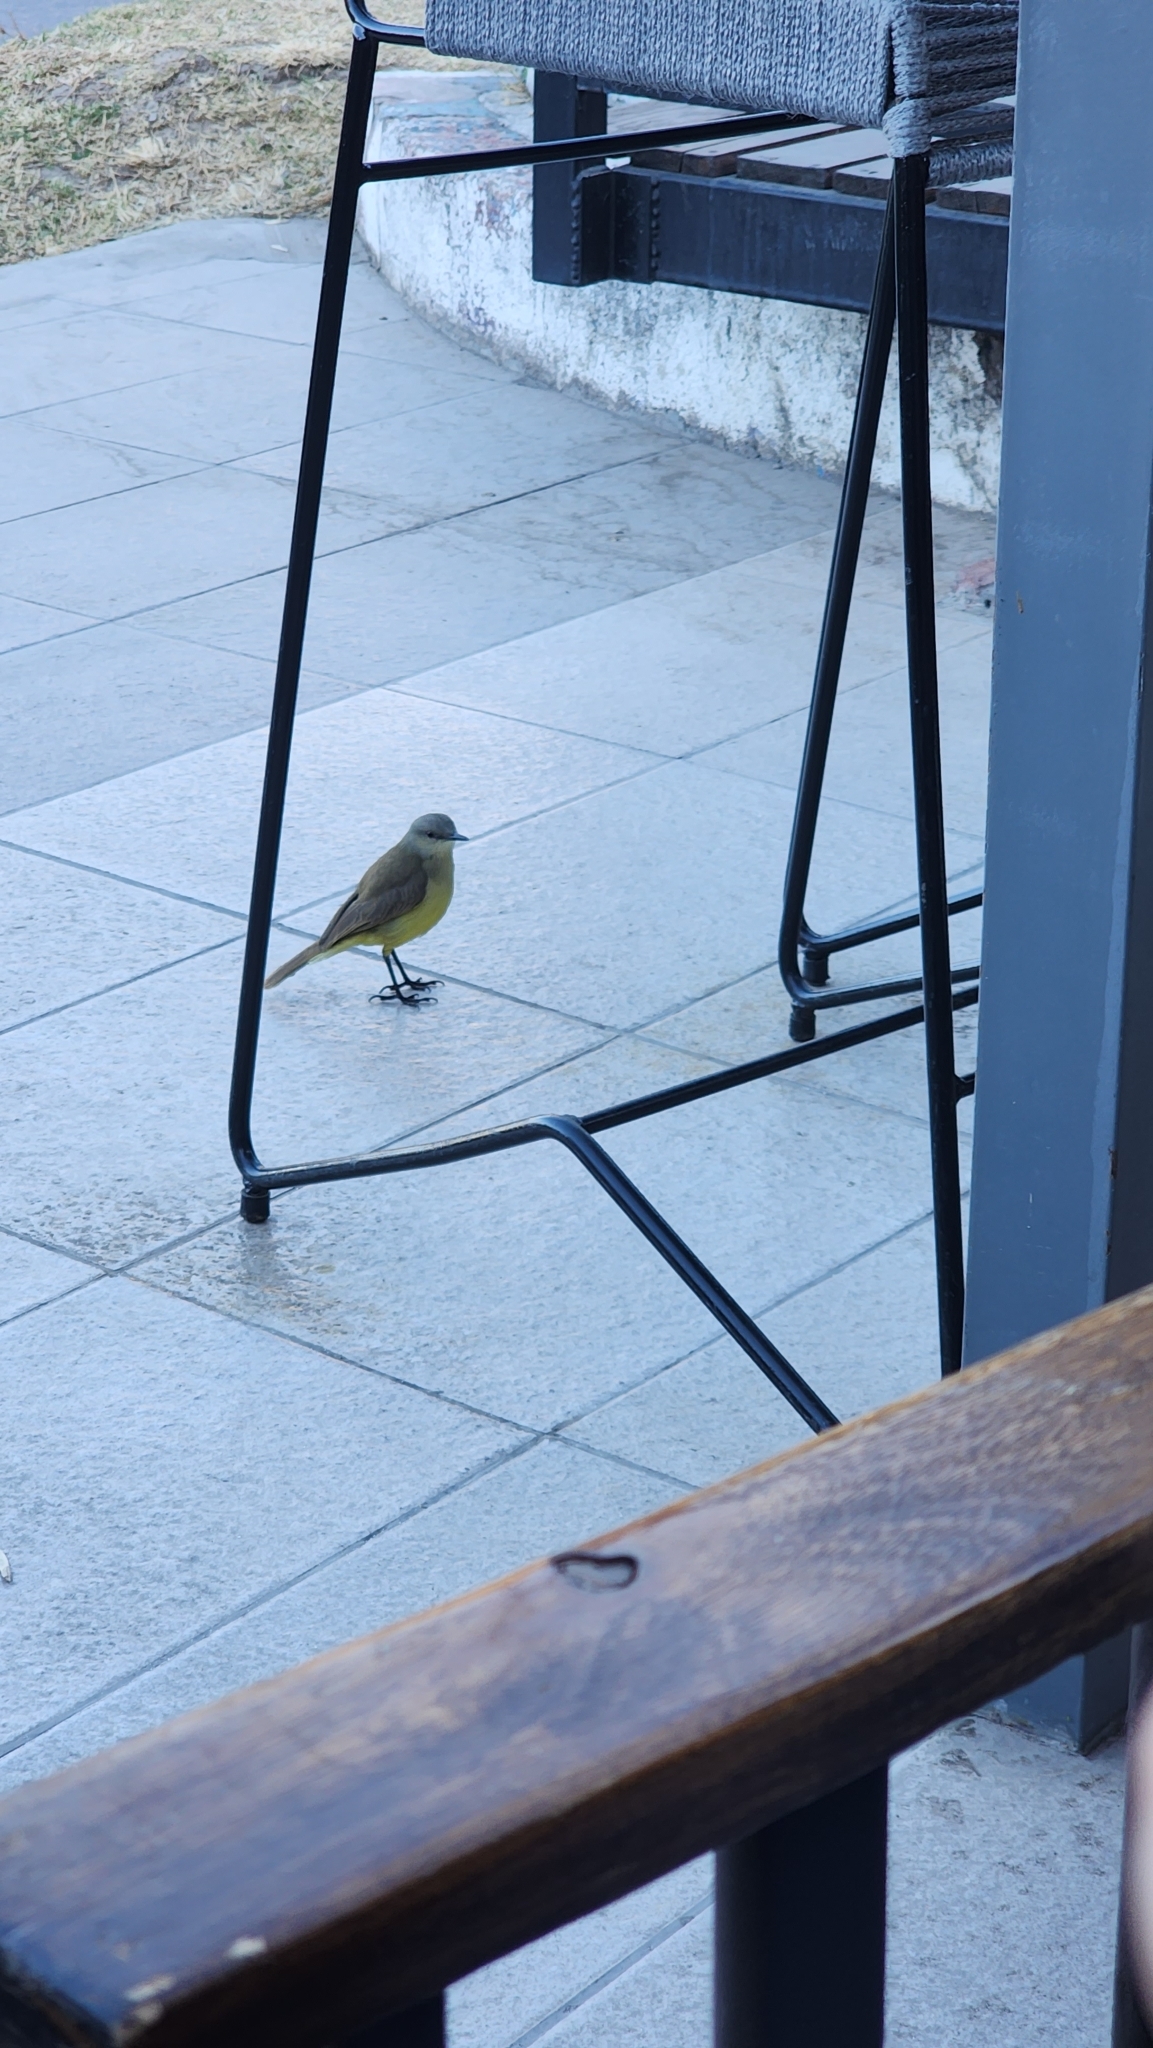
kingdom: Animalia
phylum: Chordata
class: Aves
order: Passeriformes
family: Tyrannidae
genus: Machetornis
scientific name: Machetornis rixosa
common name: Cattle tyrant
